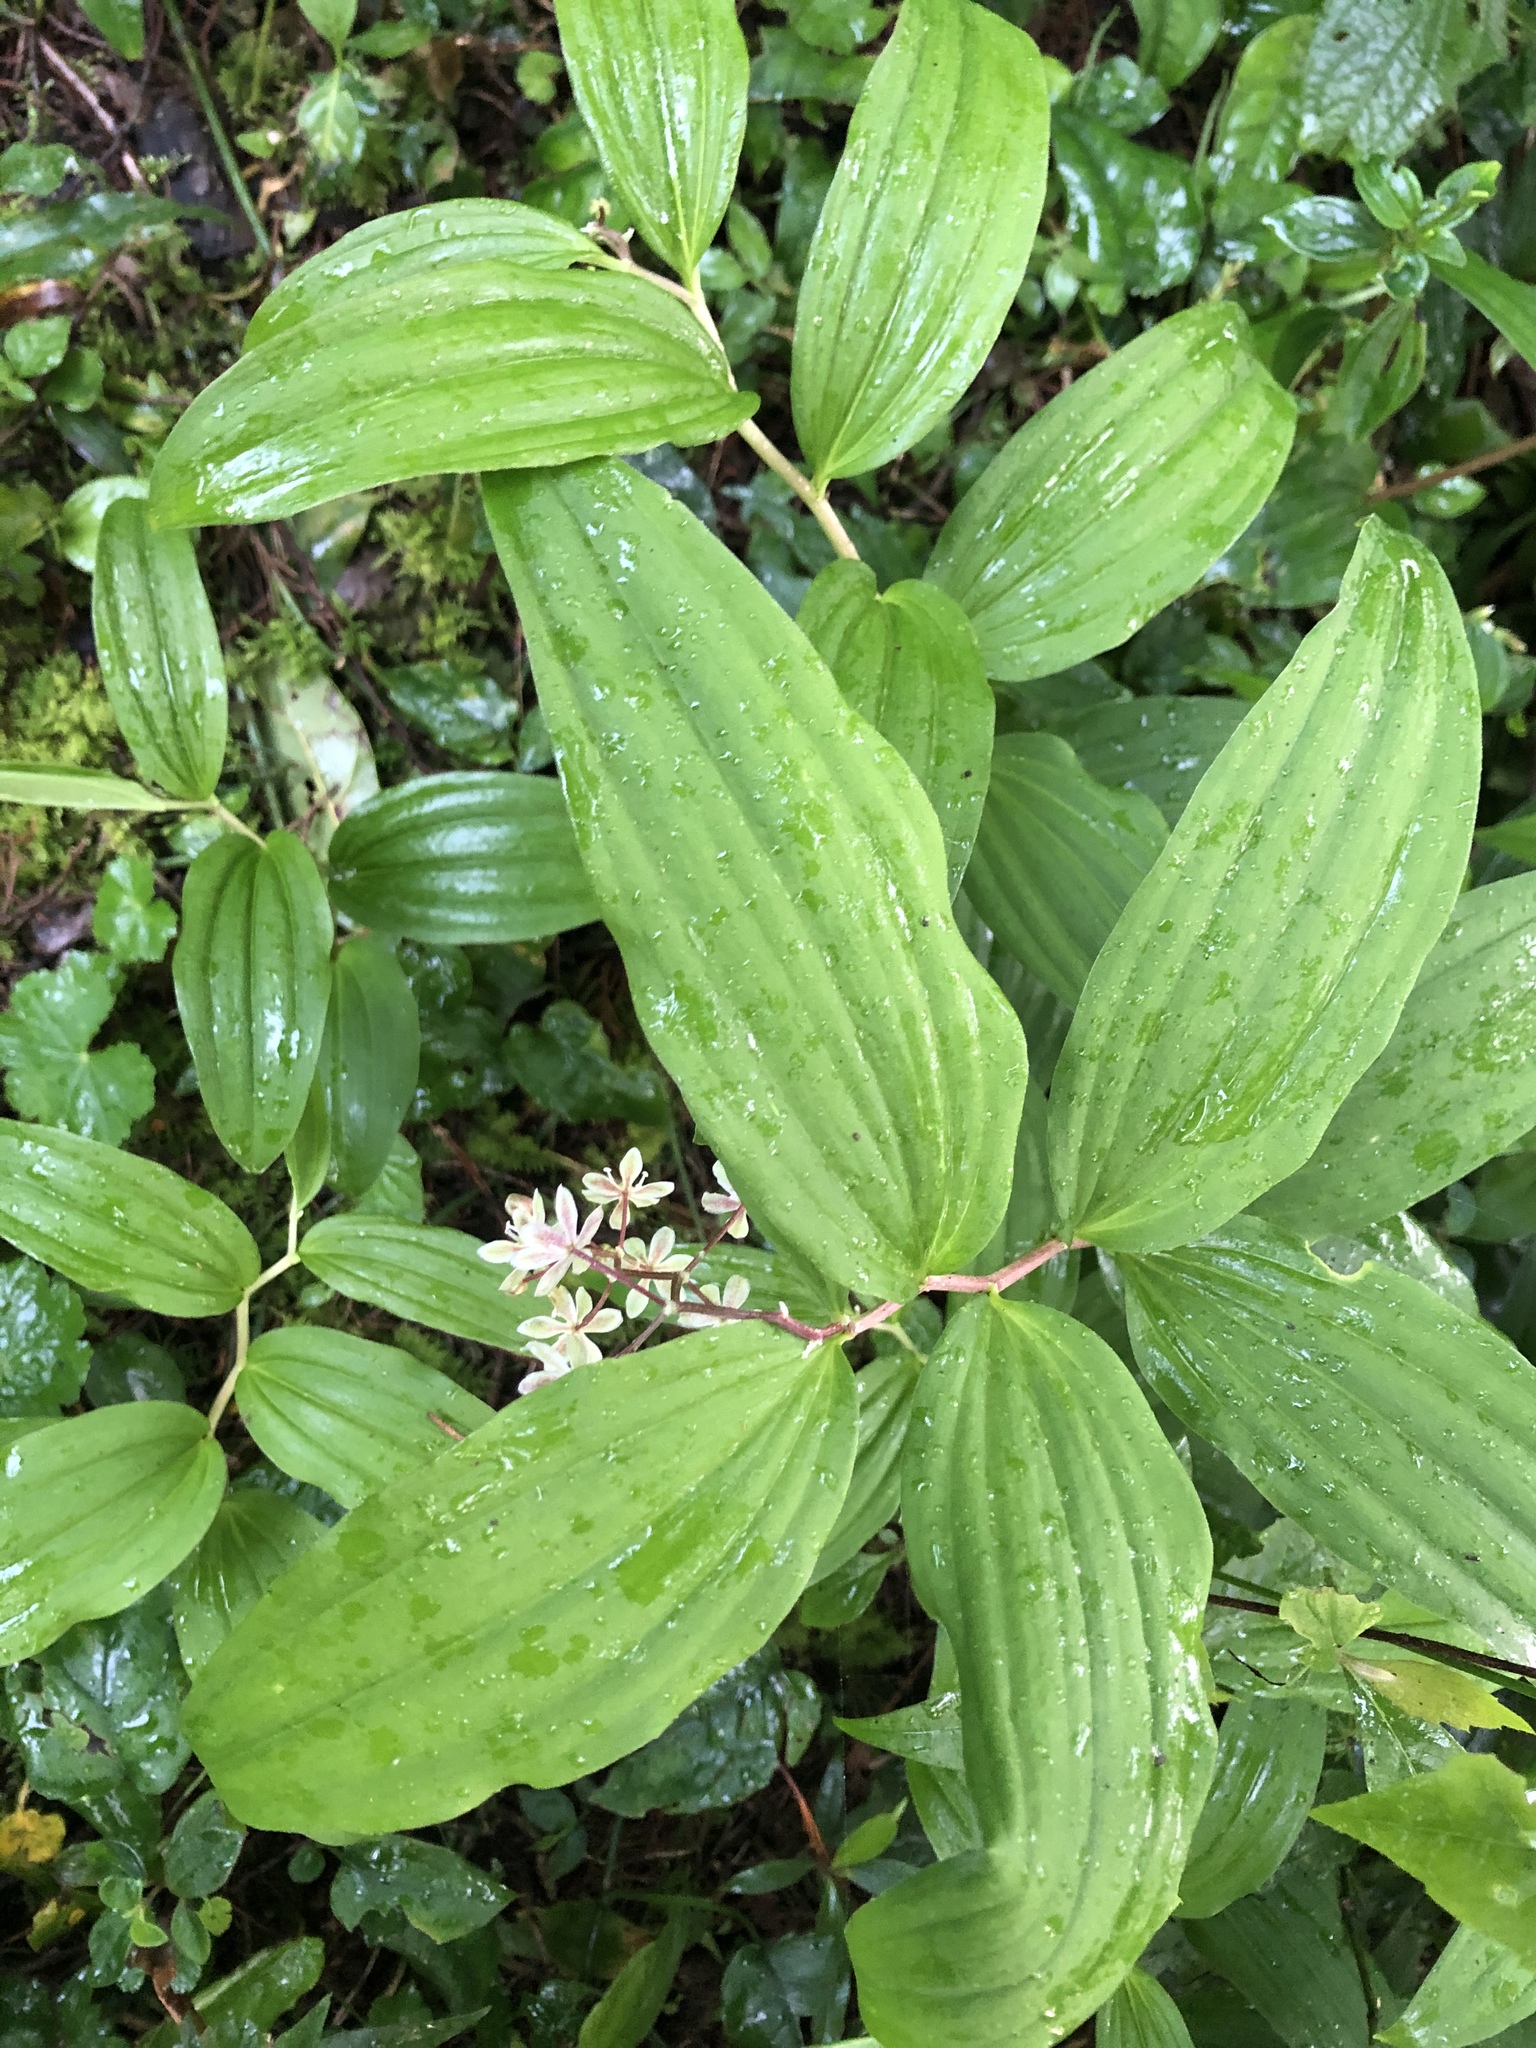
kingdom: Plantae
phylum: Tracheophyta
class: Liliopsida
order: Asparagales
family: Asparagaceae
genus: Maianthemum
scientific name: Maianthemum flexuosum
